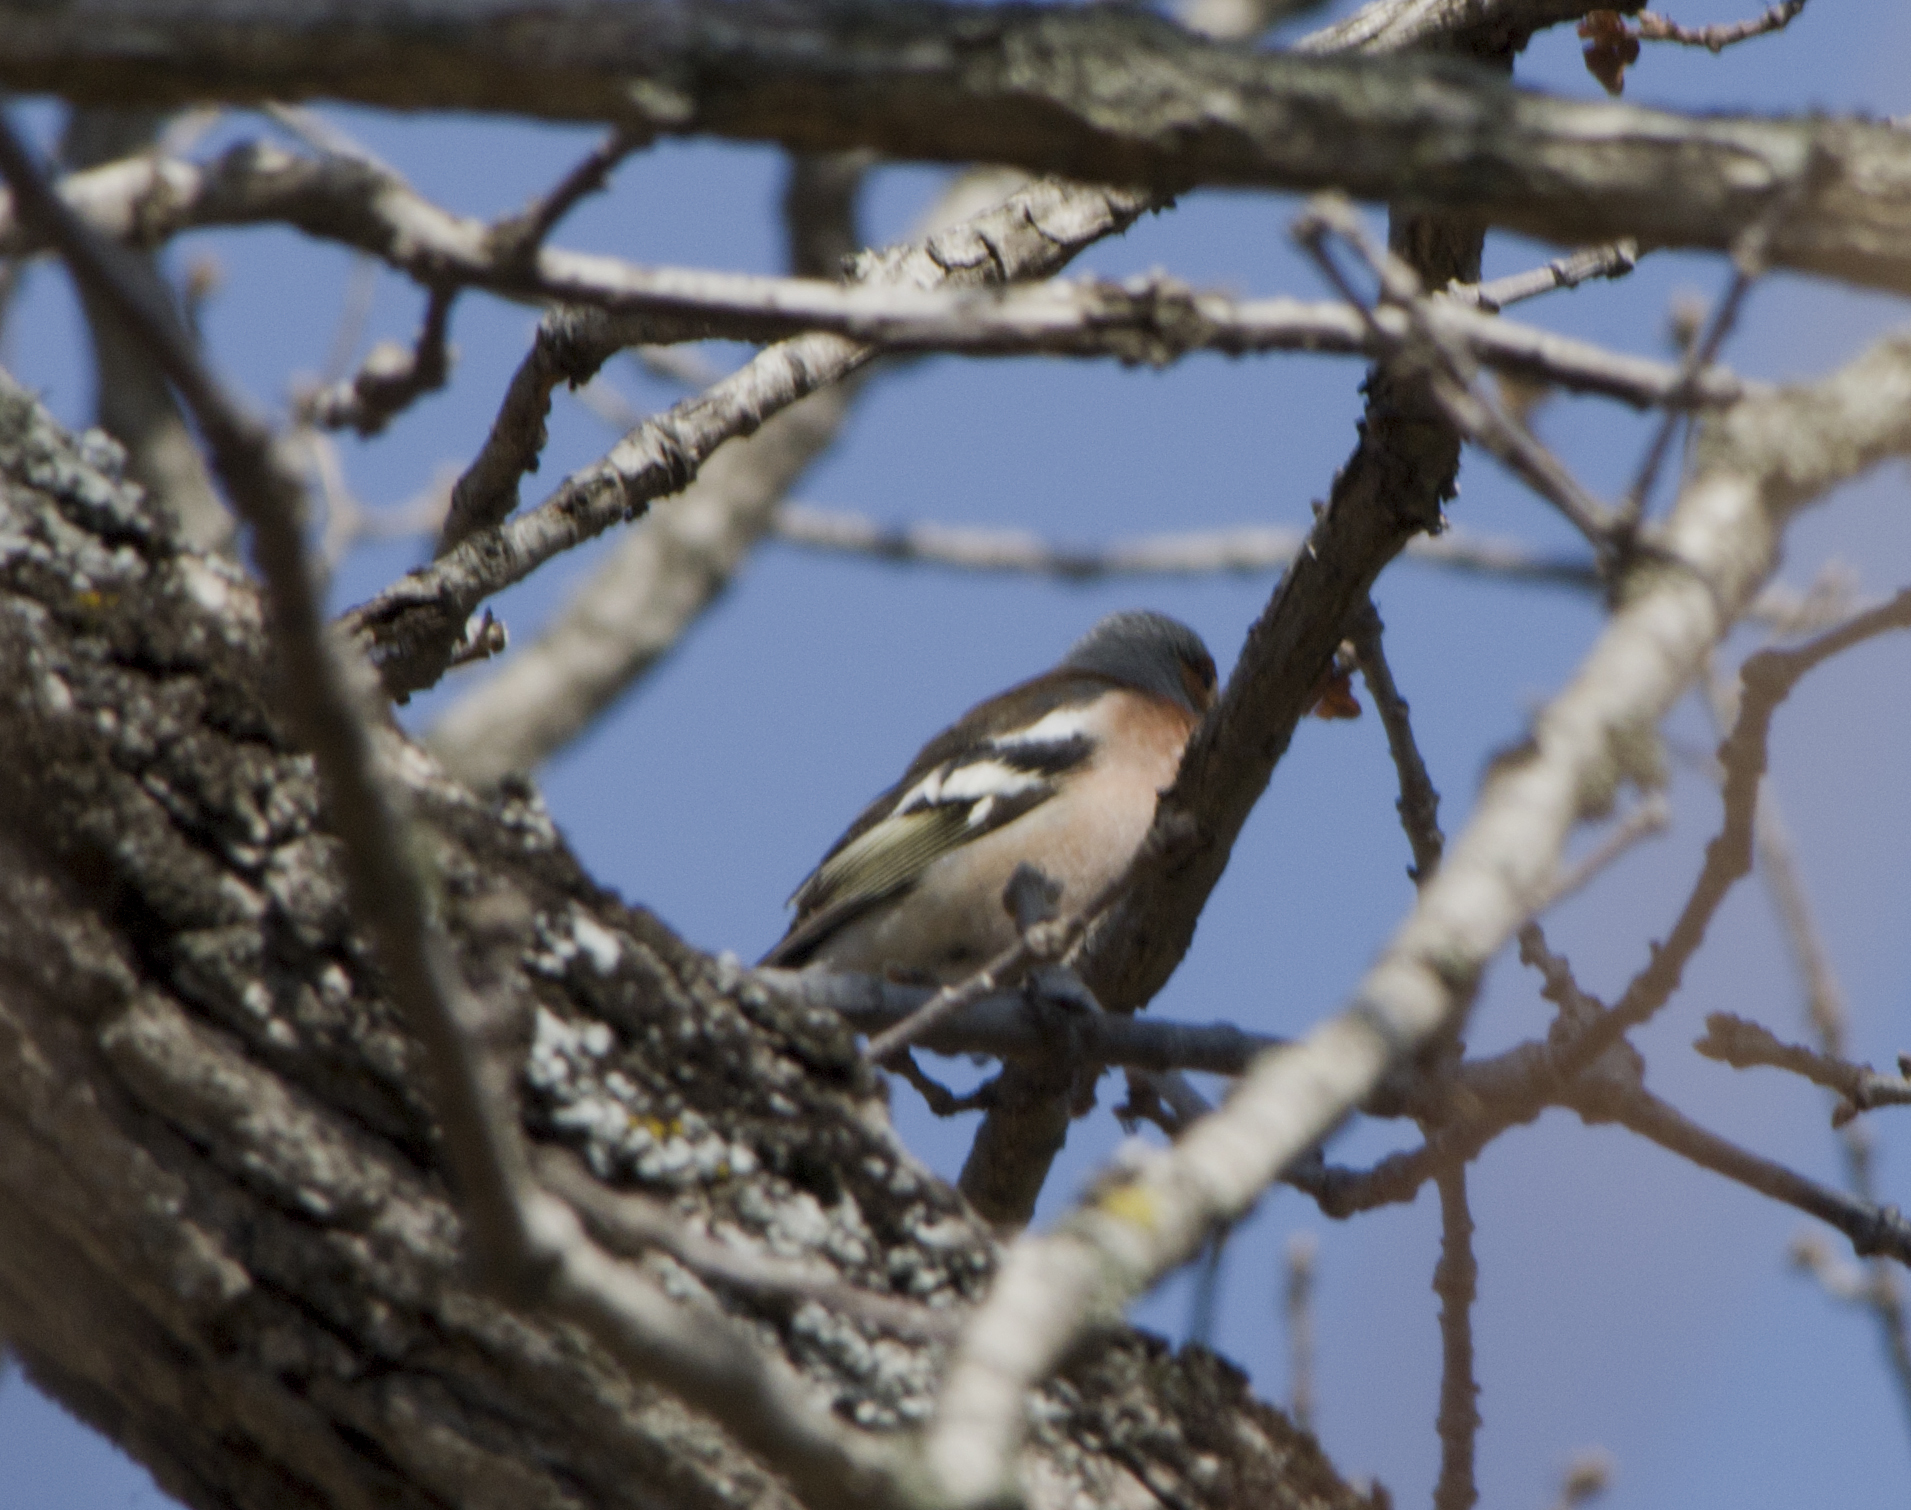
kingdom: Animalia
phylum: Chordata
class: Aves
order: Passeriformes
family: Fringillidae
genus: Fringilla
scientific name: Fringilla coelebs
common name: Common chaffinch
